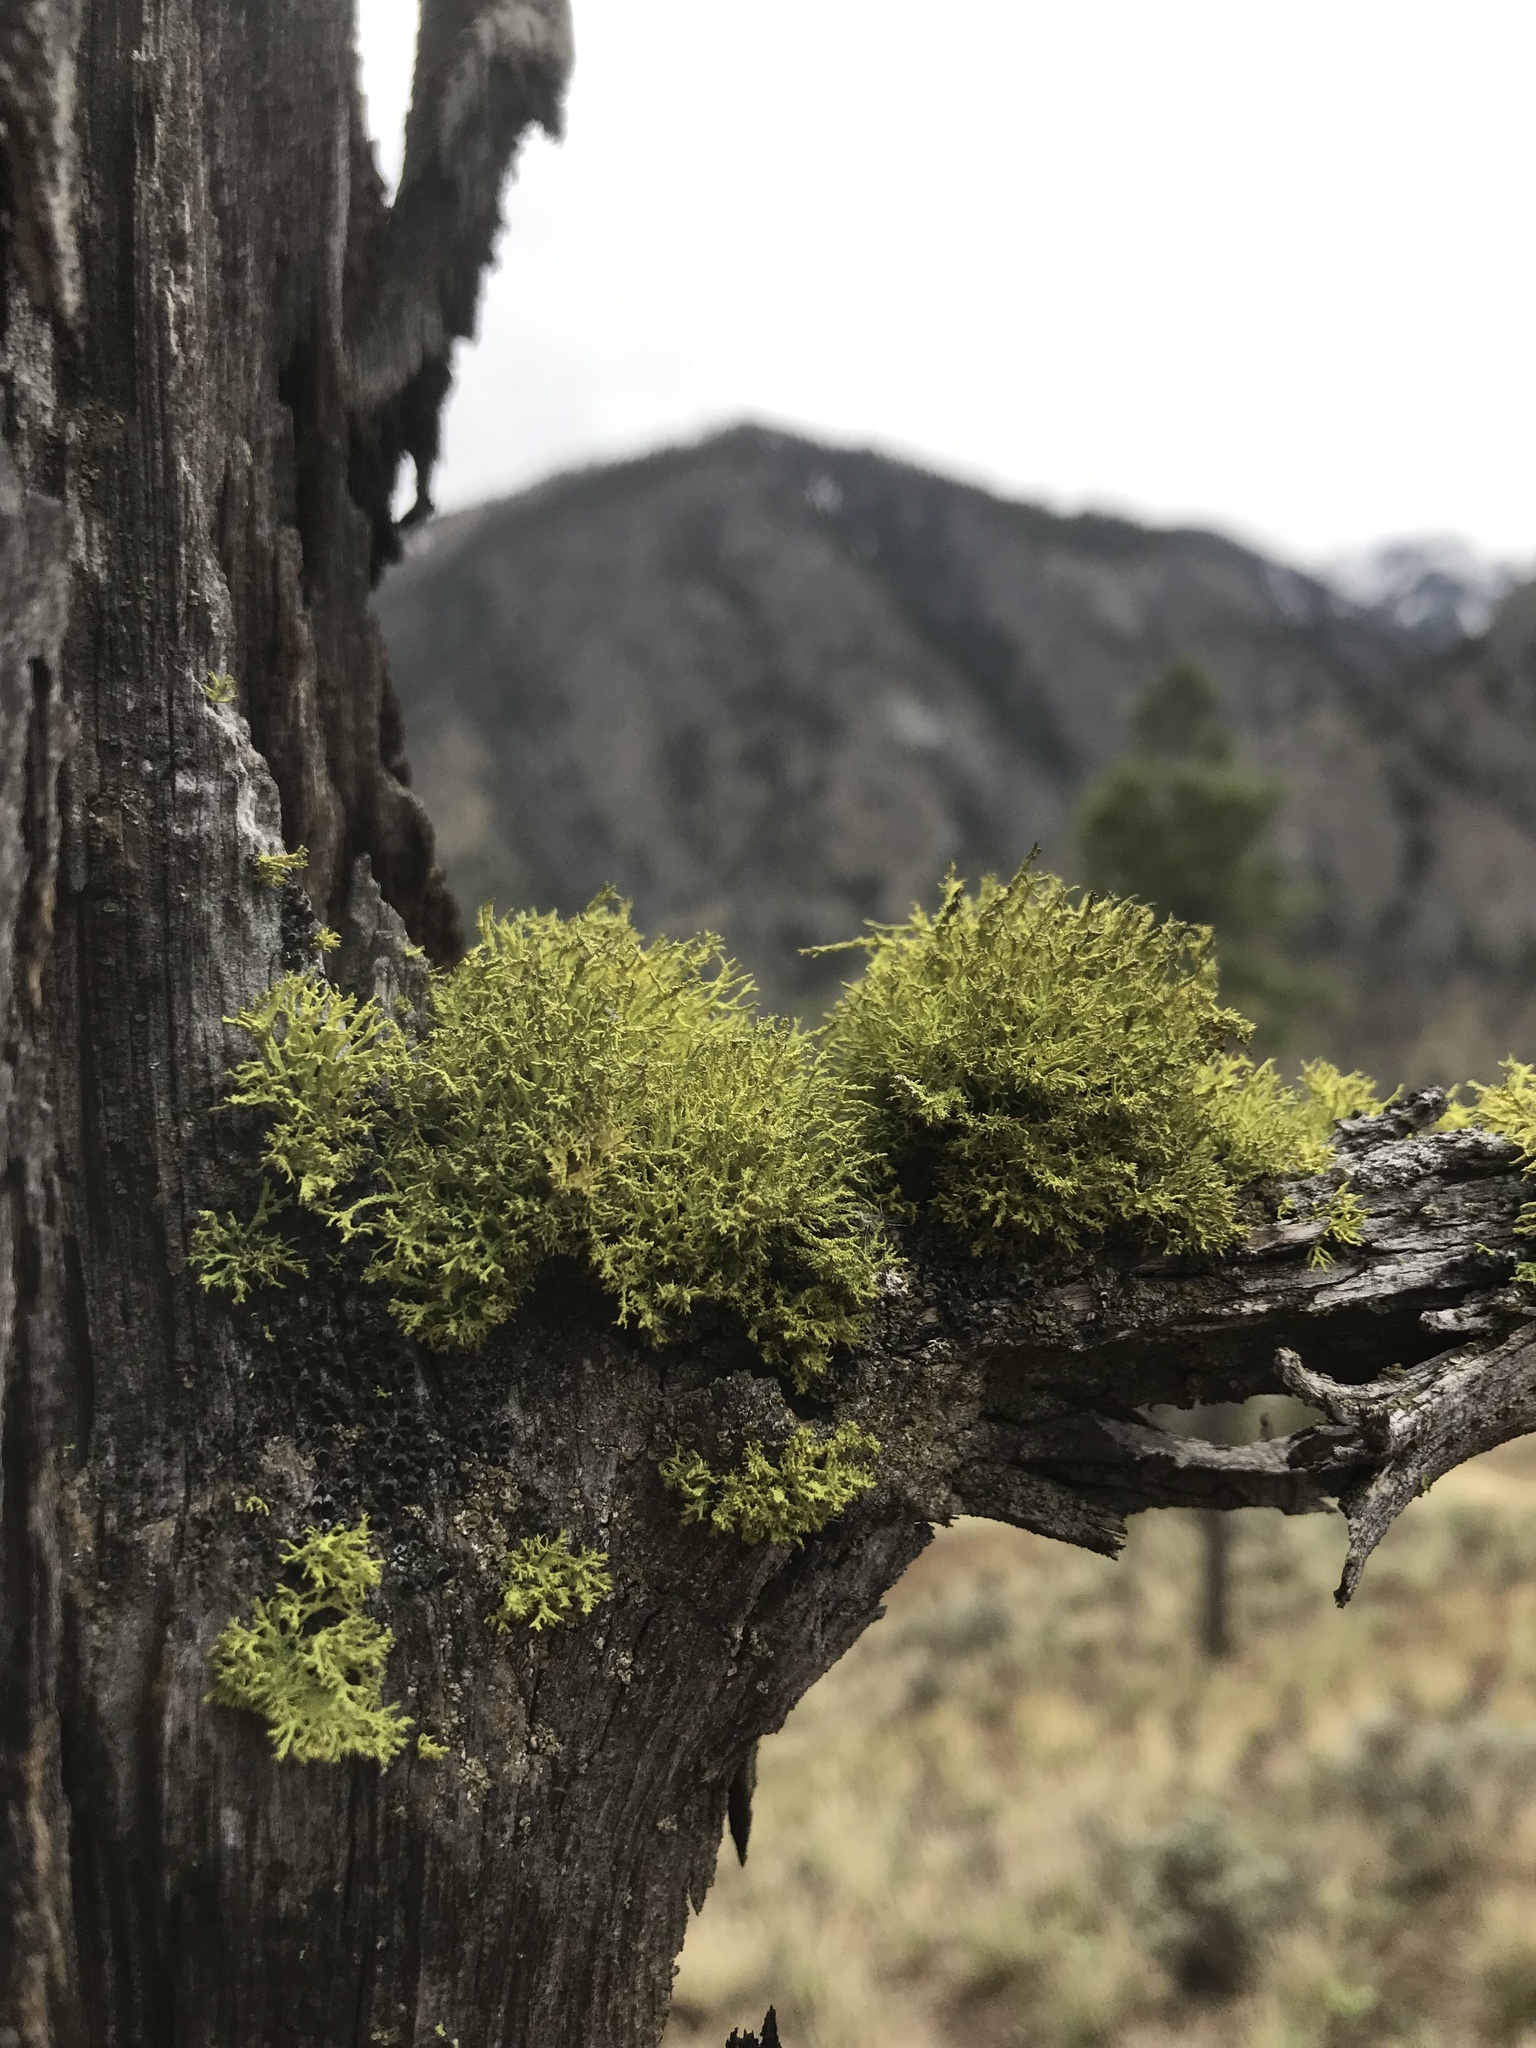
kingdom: Fungi
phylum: Ascomycota
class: Lecanoromycetes
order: Lecanorales
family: Parmeliaceae
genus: Letharia
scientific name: Letharia vulpina
